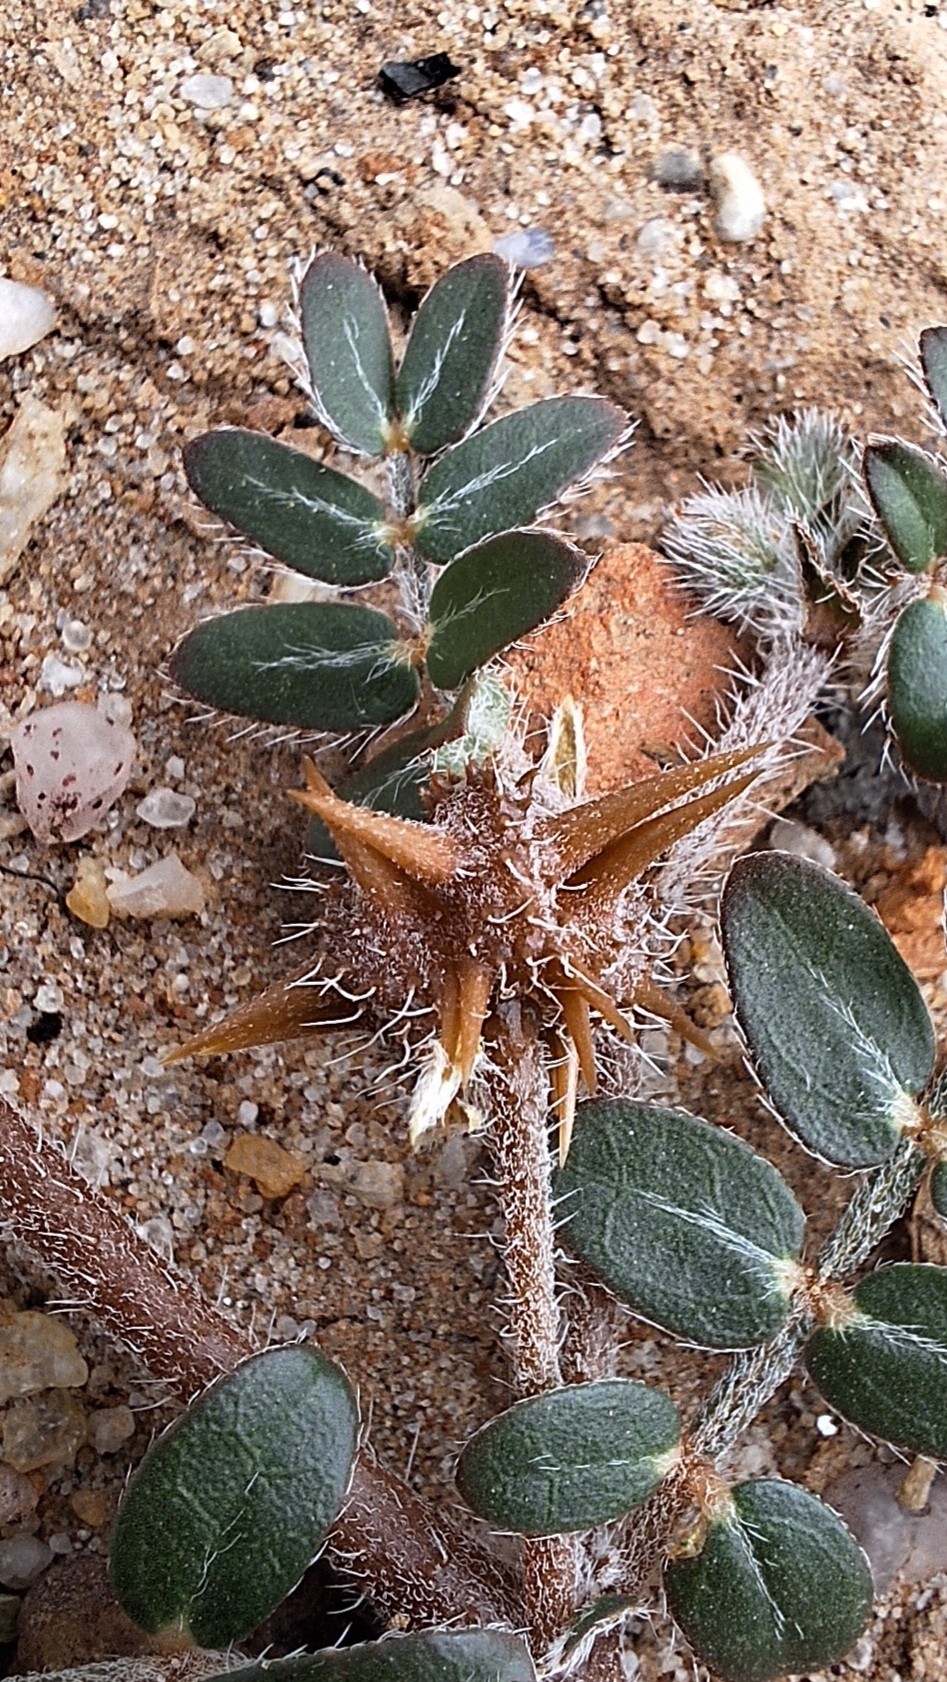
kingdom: Plantae
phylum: Tracheophyta
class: Magnoliopsida
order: Zygophyllales
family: Zygophyllaceae
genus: Tribulus
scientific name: Tribulus terrestris
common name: Puncturevine
